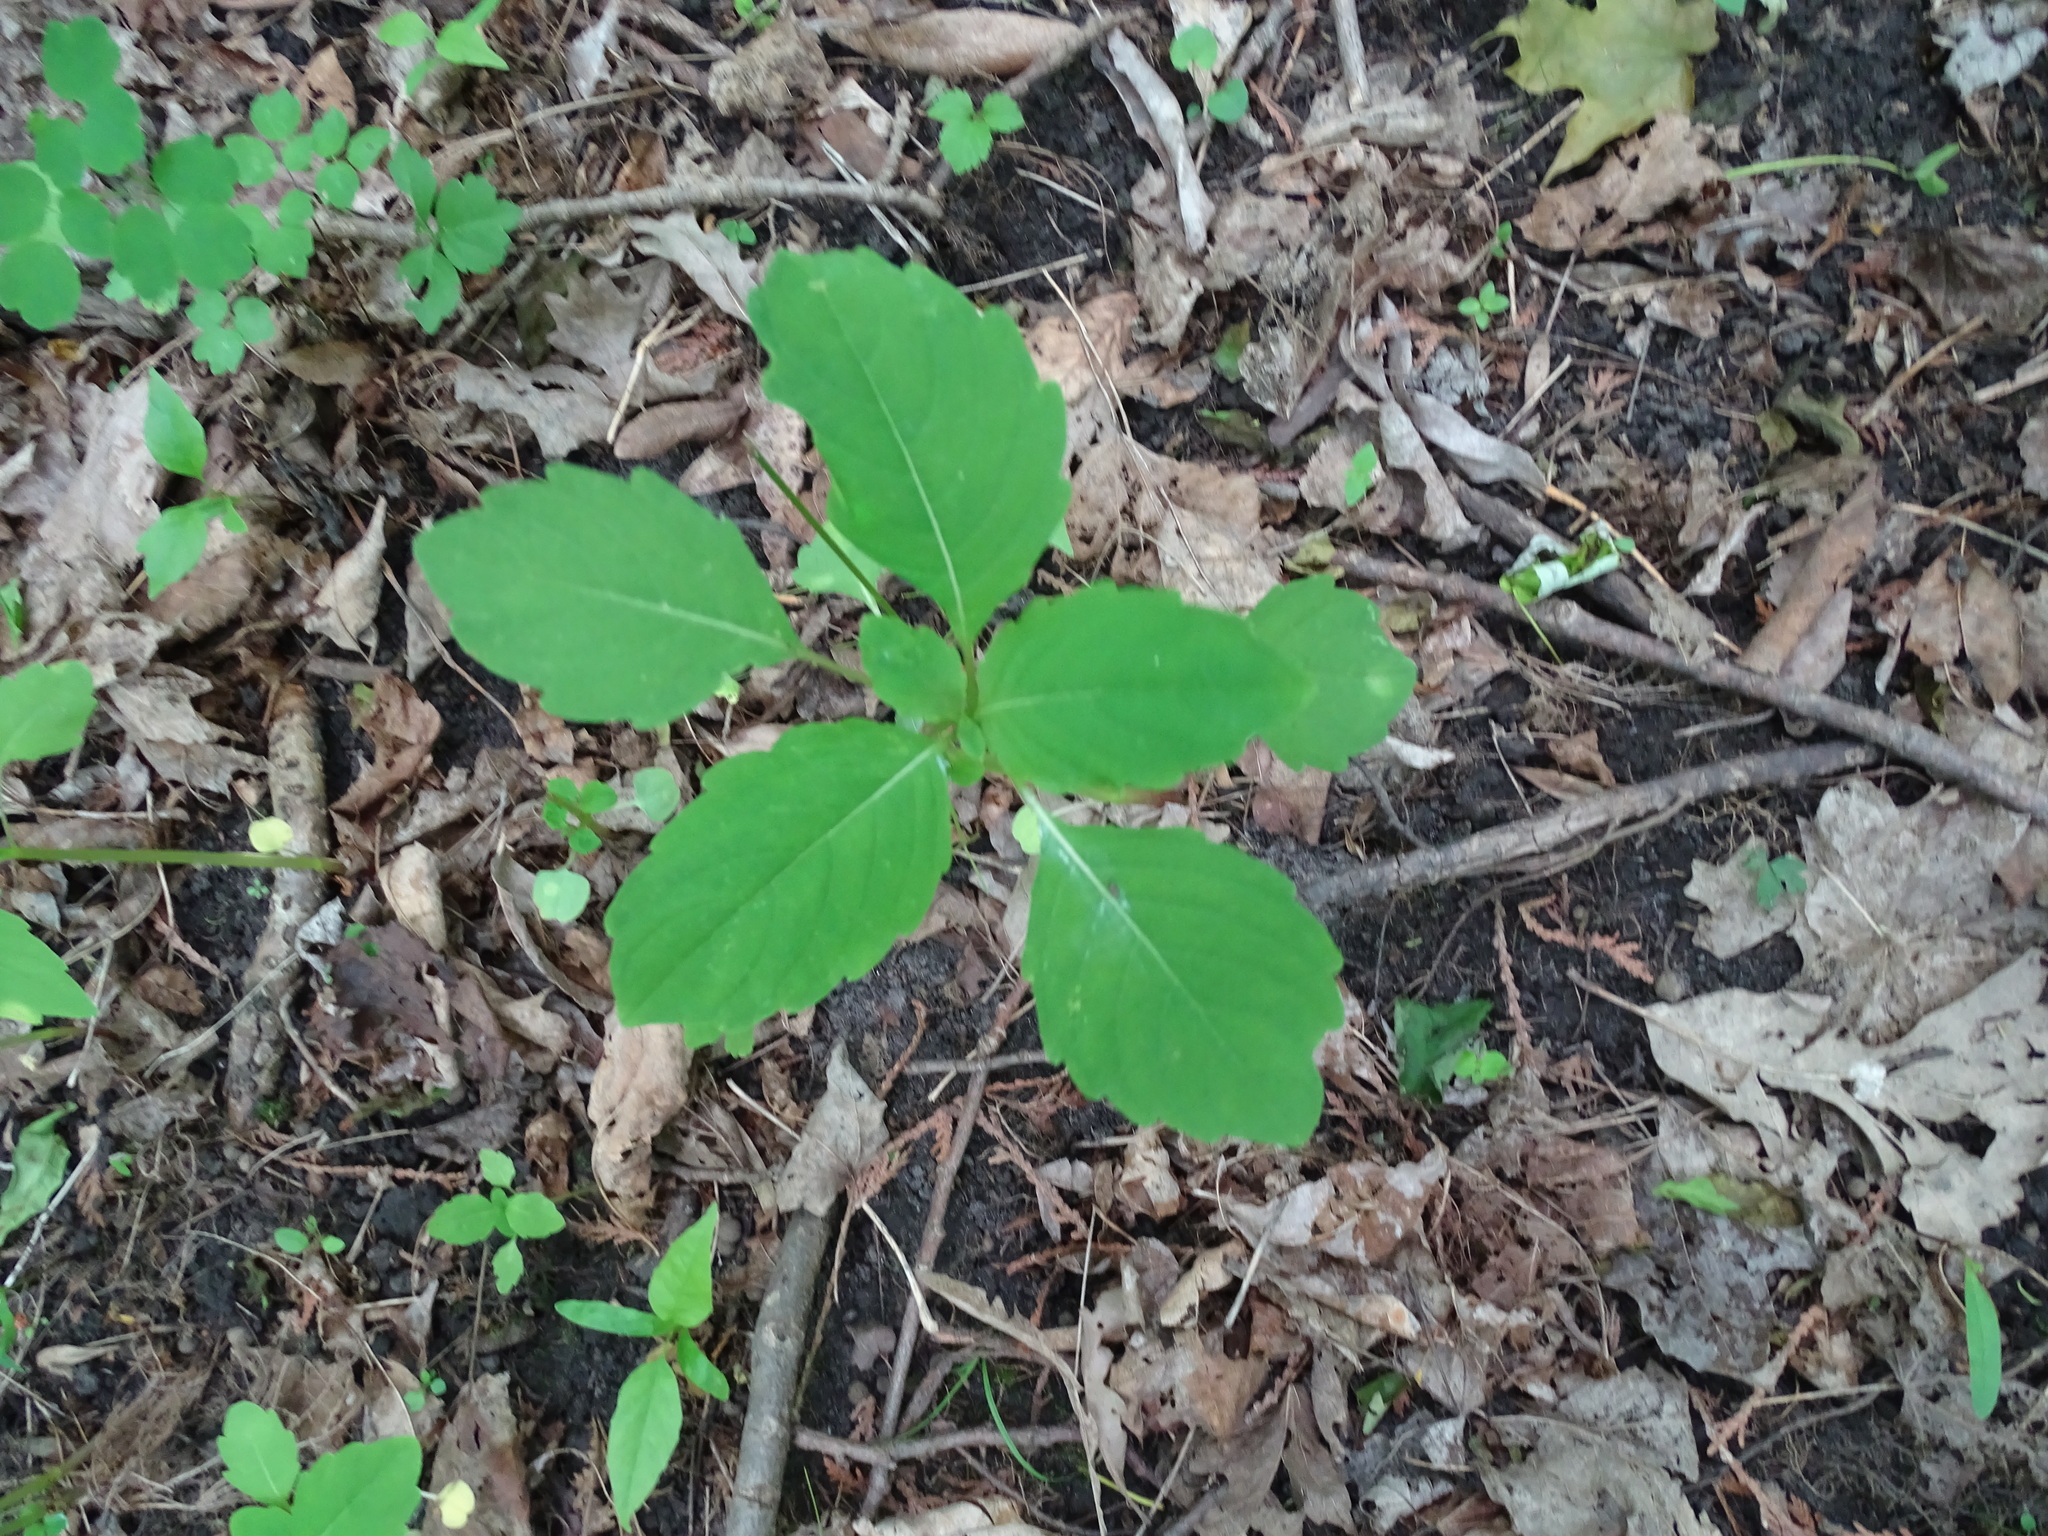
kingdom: Plantae
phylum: Tracheophyta
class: Magnoliopsida
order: Ericales
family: Balsaminaceae
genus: Impatiens
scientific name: Impatiens capensis
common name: Orange balsam
